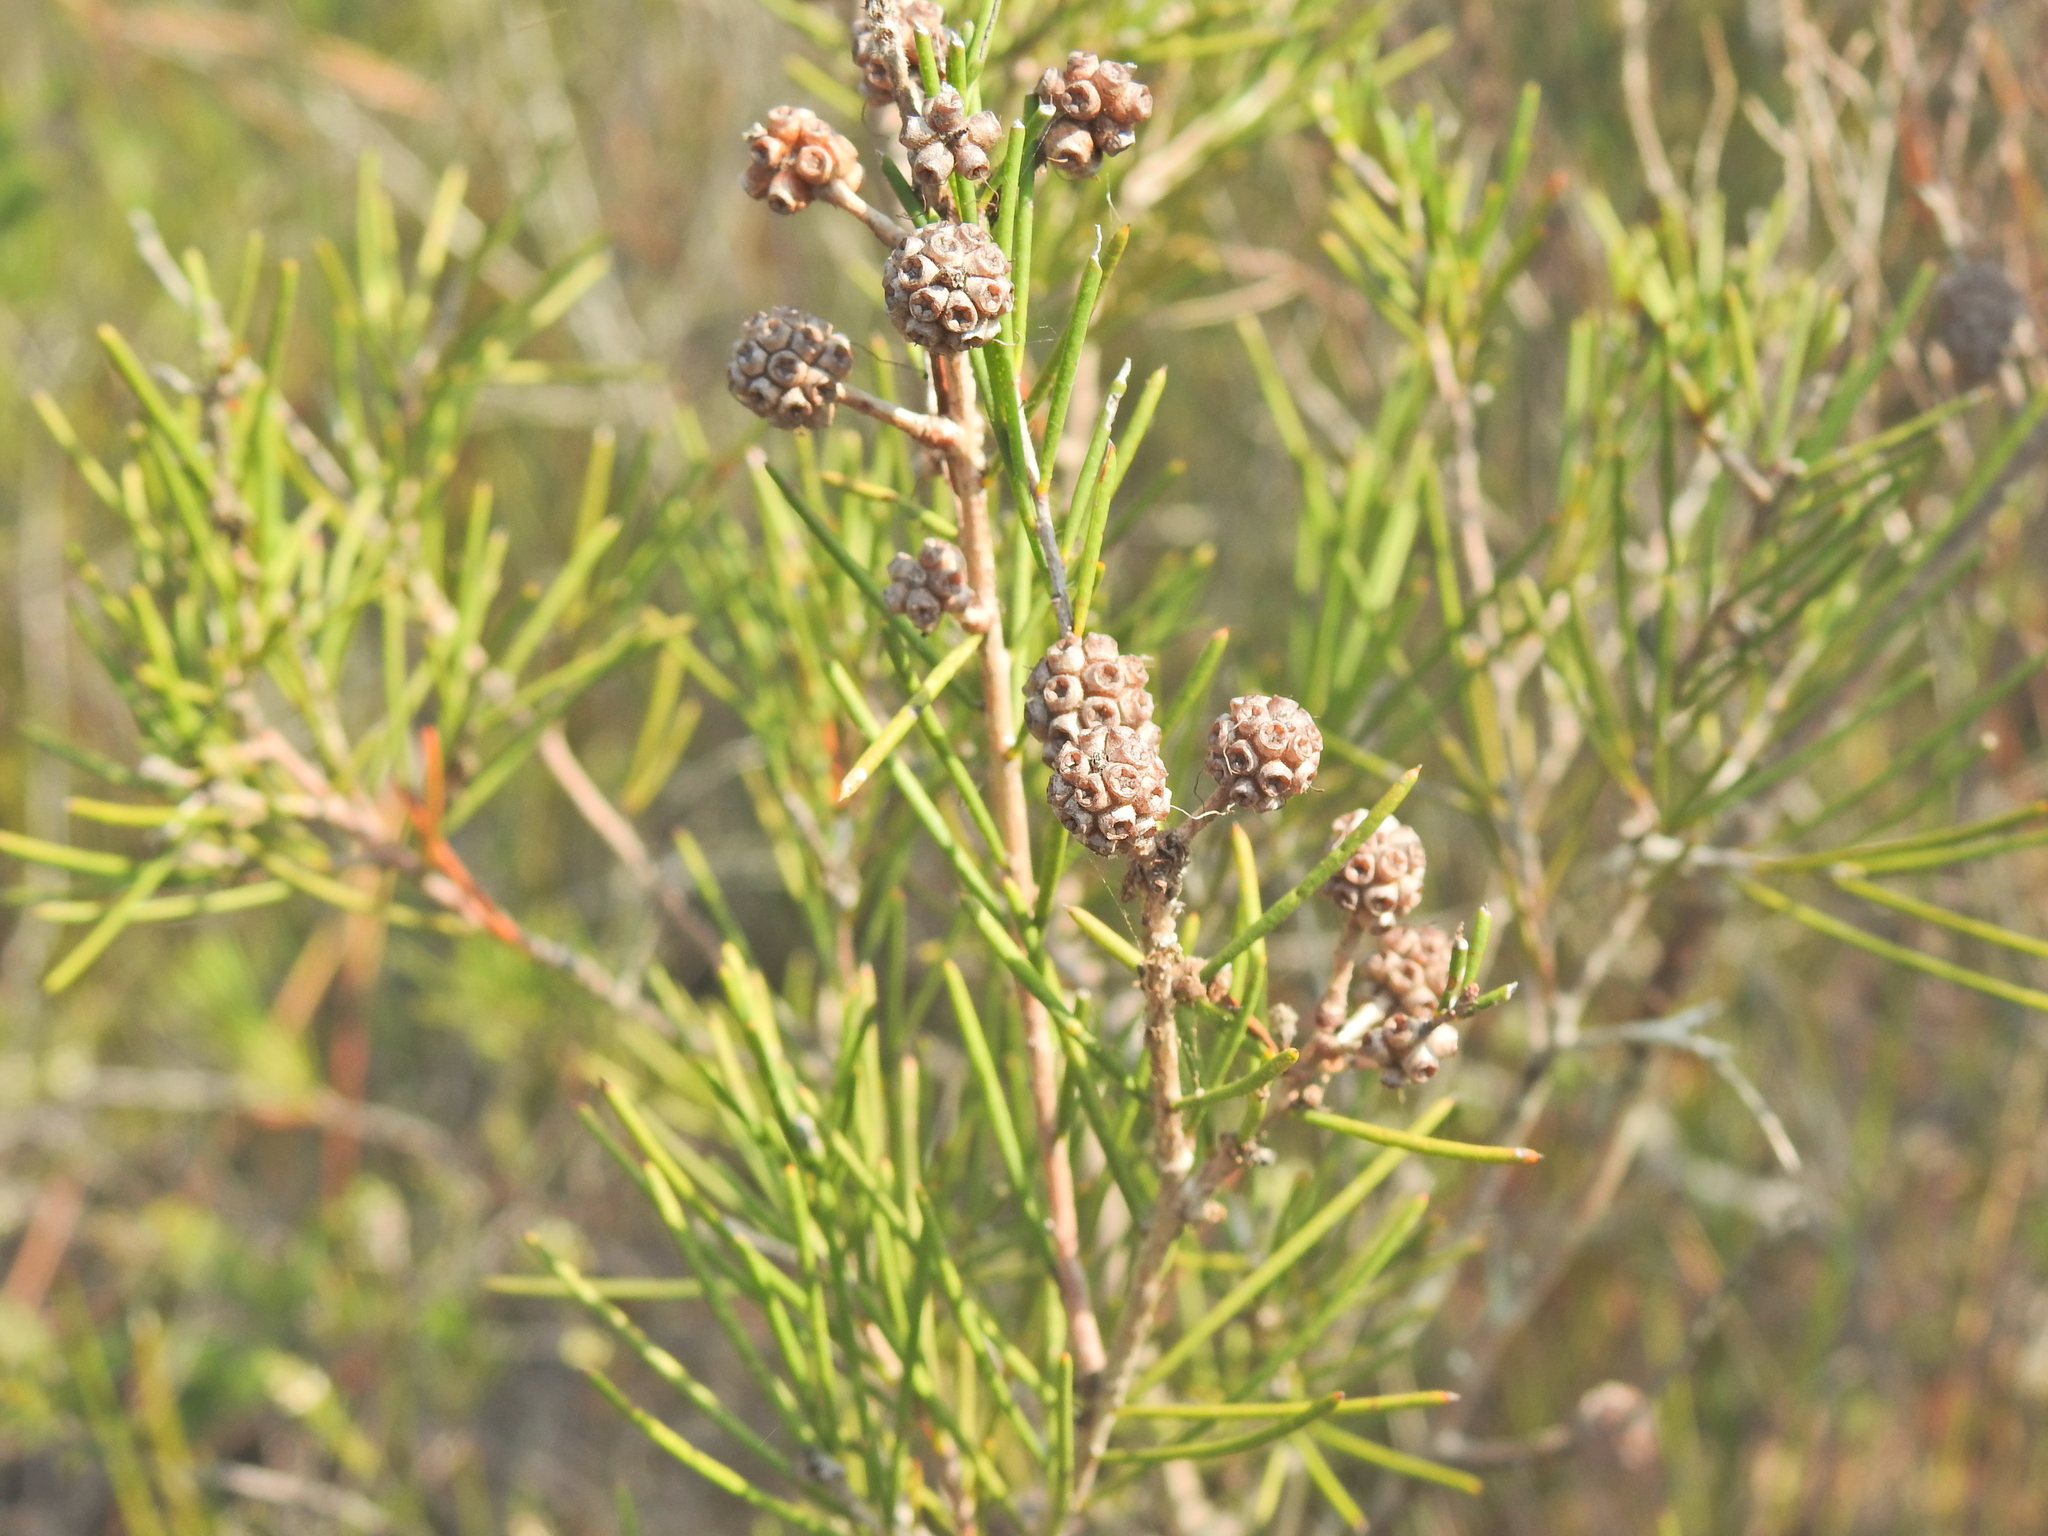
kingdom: Plantae
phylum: Tracheophyta
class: Magnoliopsida
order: Myrtales
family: Myrtaceae
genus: Melaleuca
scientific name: Melaleuca nodosa
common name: Prickly-leaf paperbark
